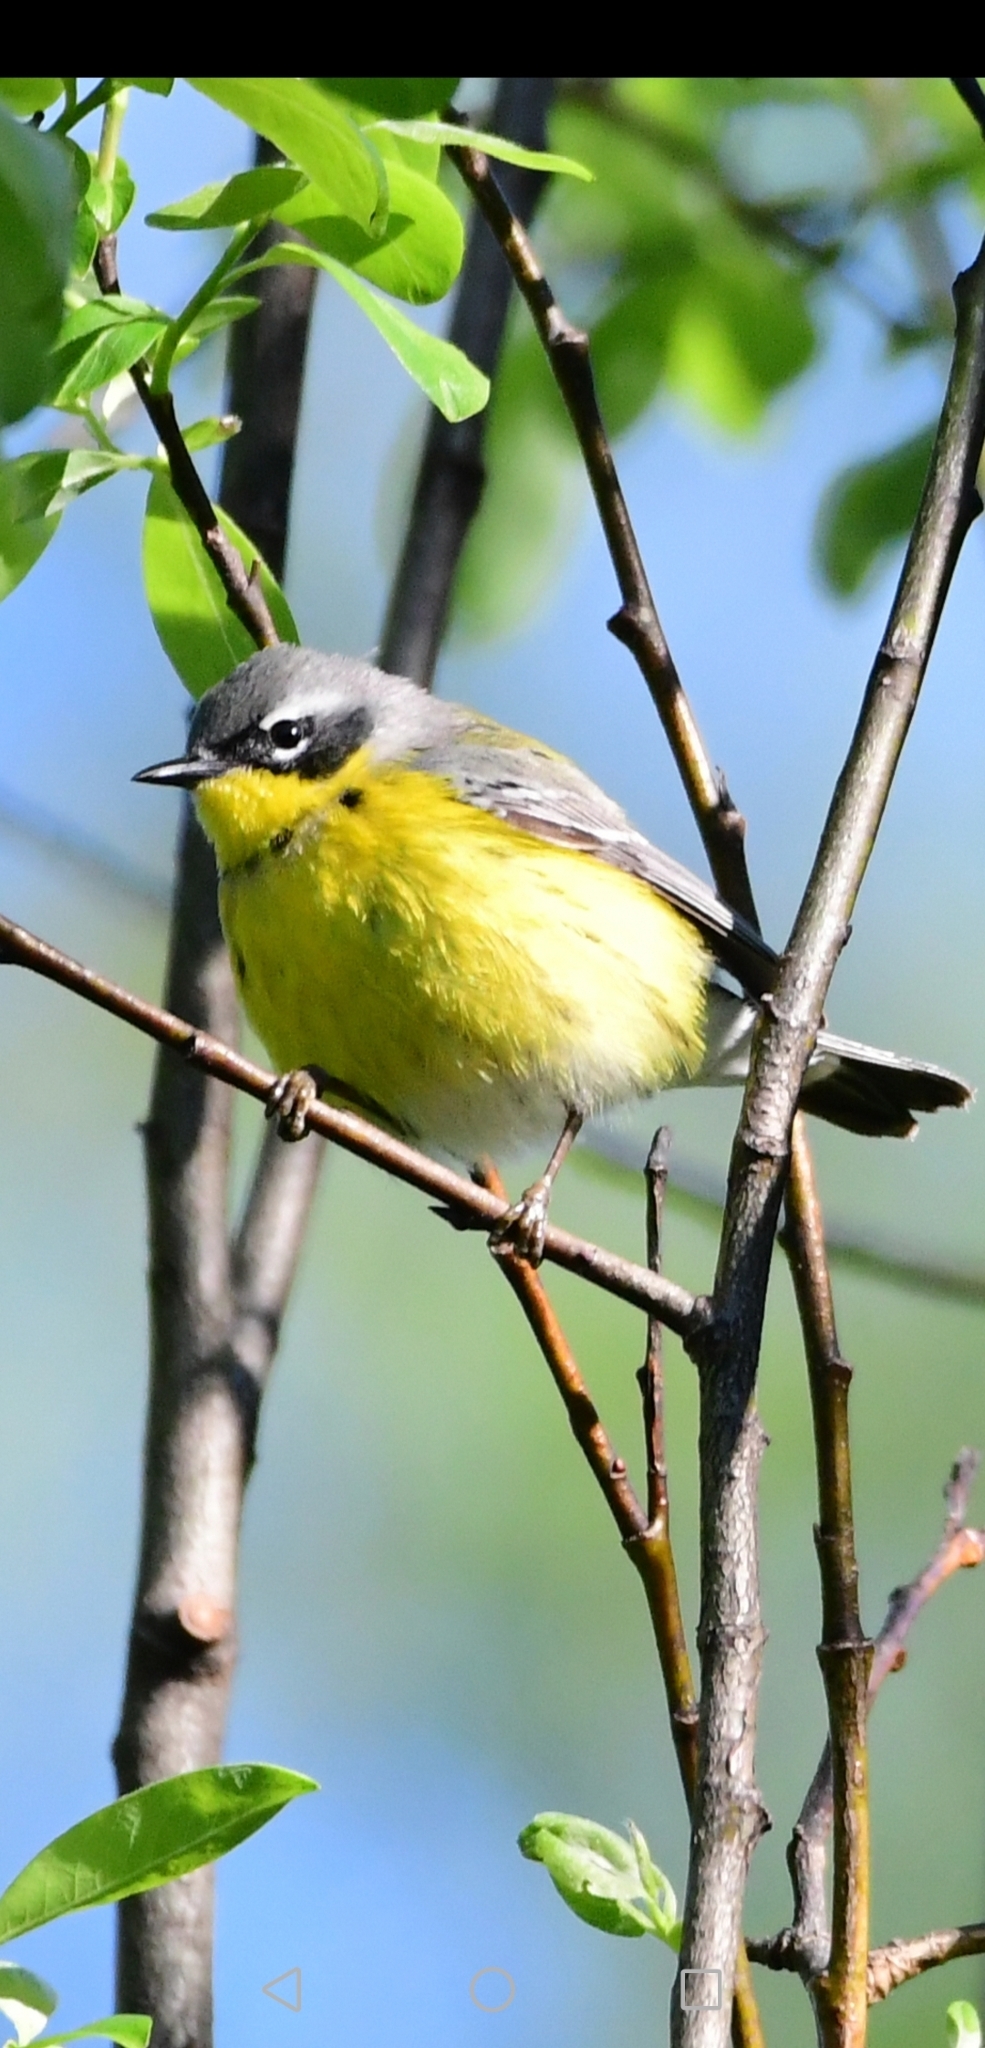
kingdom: Animalia
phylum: Chordata
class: Aves
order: Passeriformes
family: Parulidae
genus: Setophaga
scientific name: Setophaga magnolia
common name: Magnolia warbler
